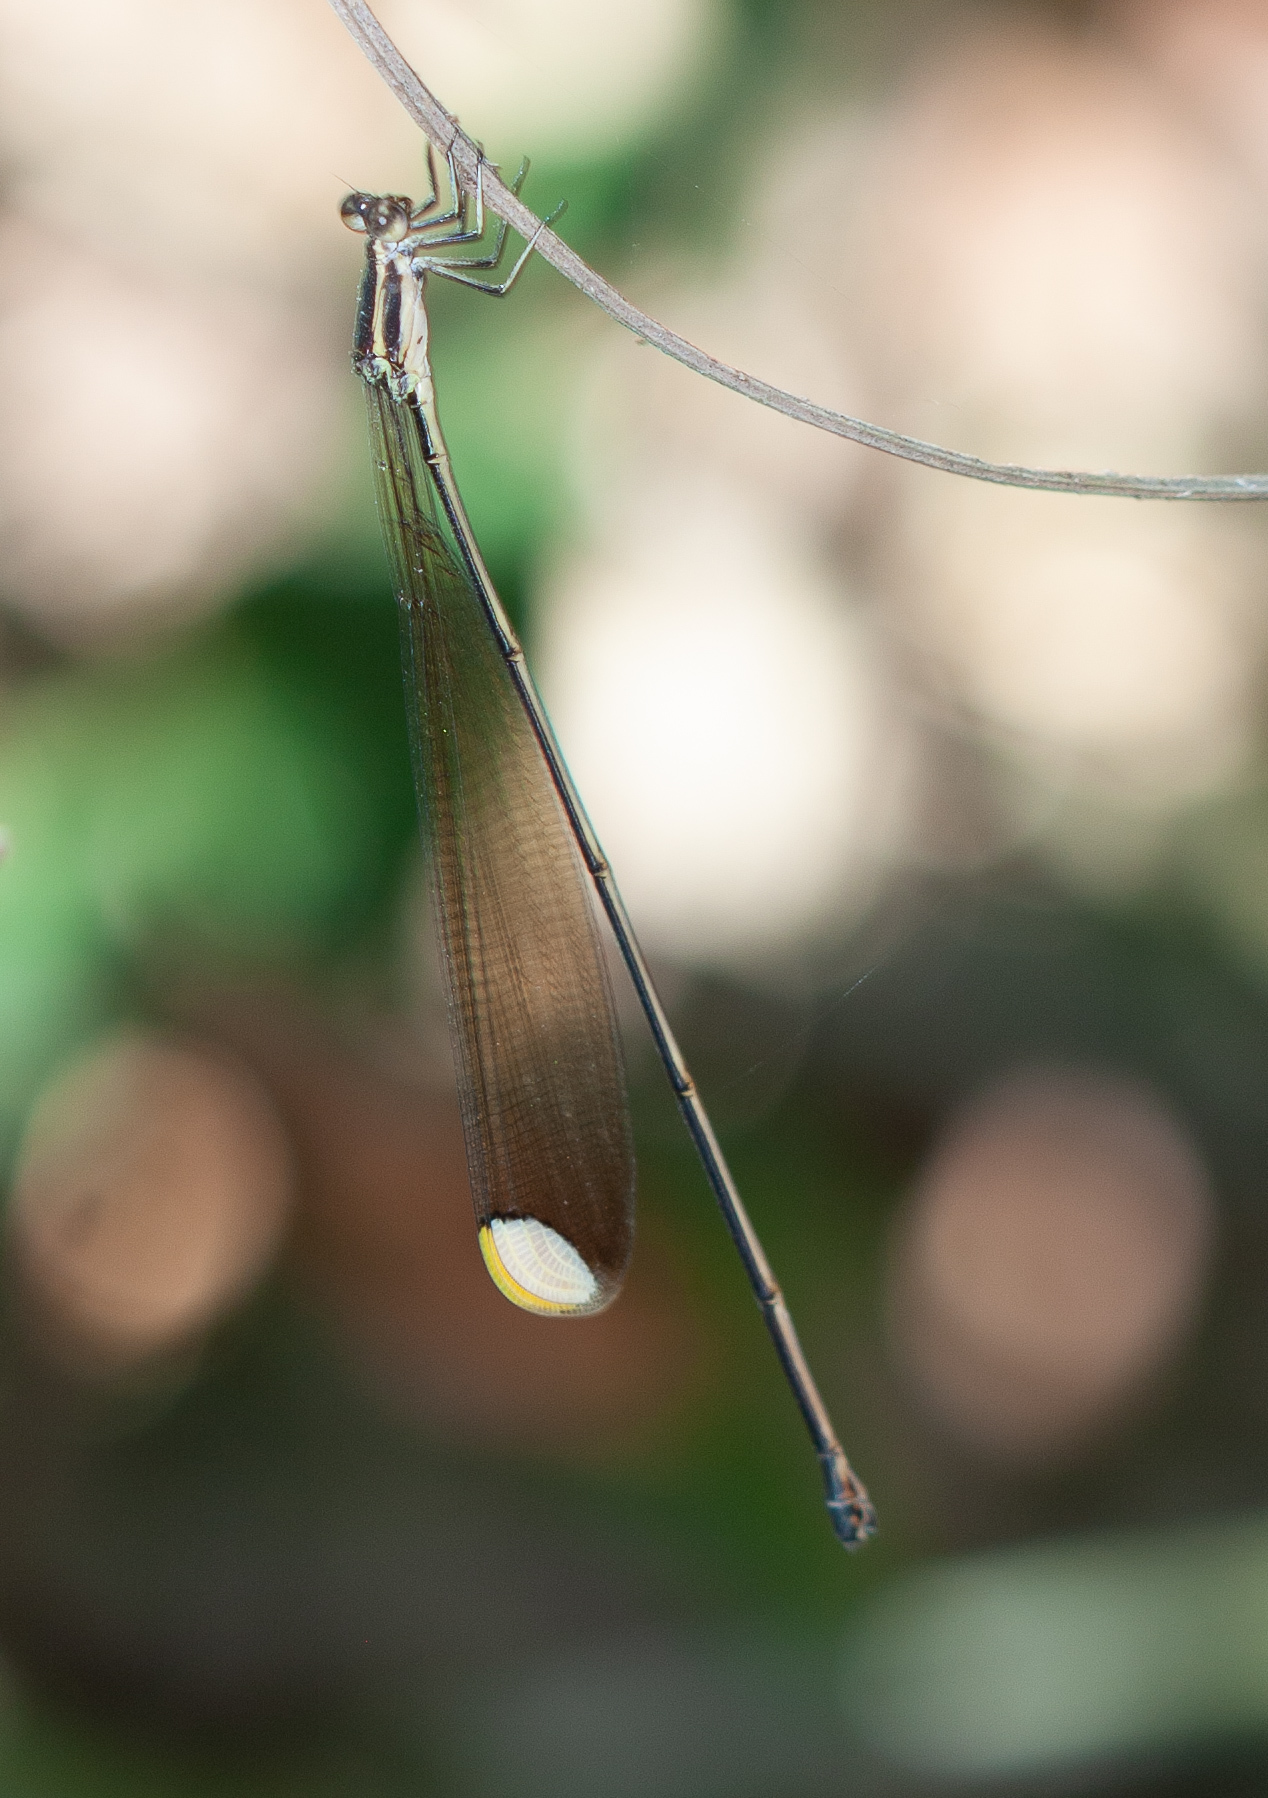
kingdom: Animalia
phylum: Arthropoda
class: Insecta
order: Odonata
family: Coenagrionidae
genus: Mecistogaster
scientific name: Mecistogaster ornata
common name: Ornate helicopter
